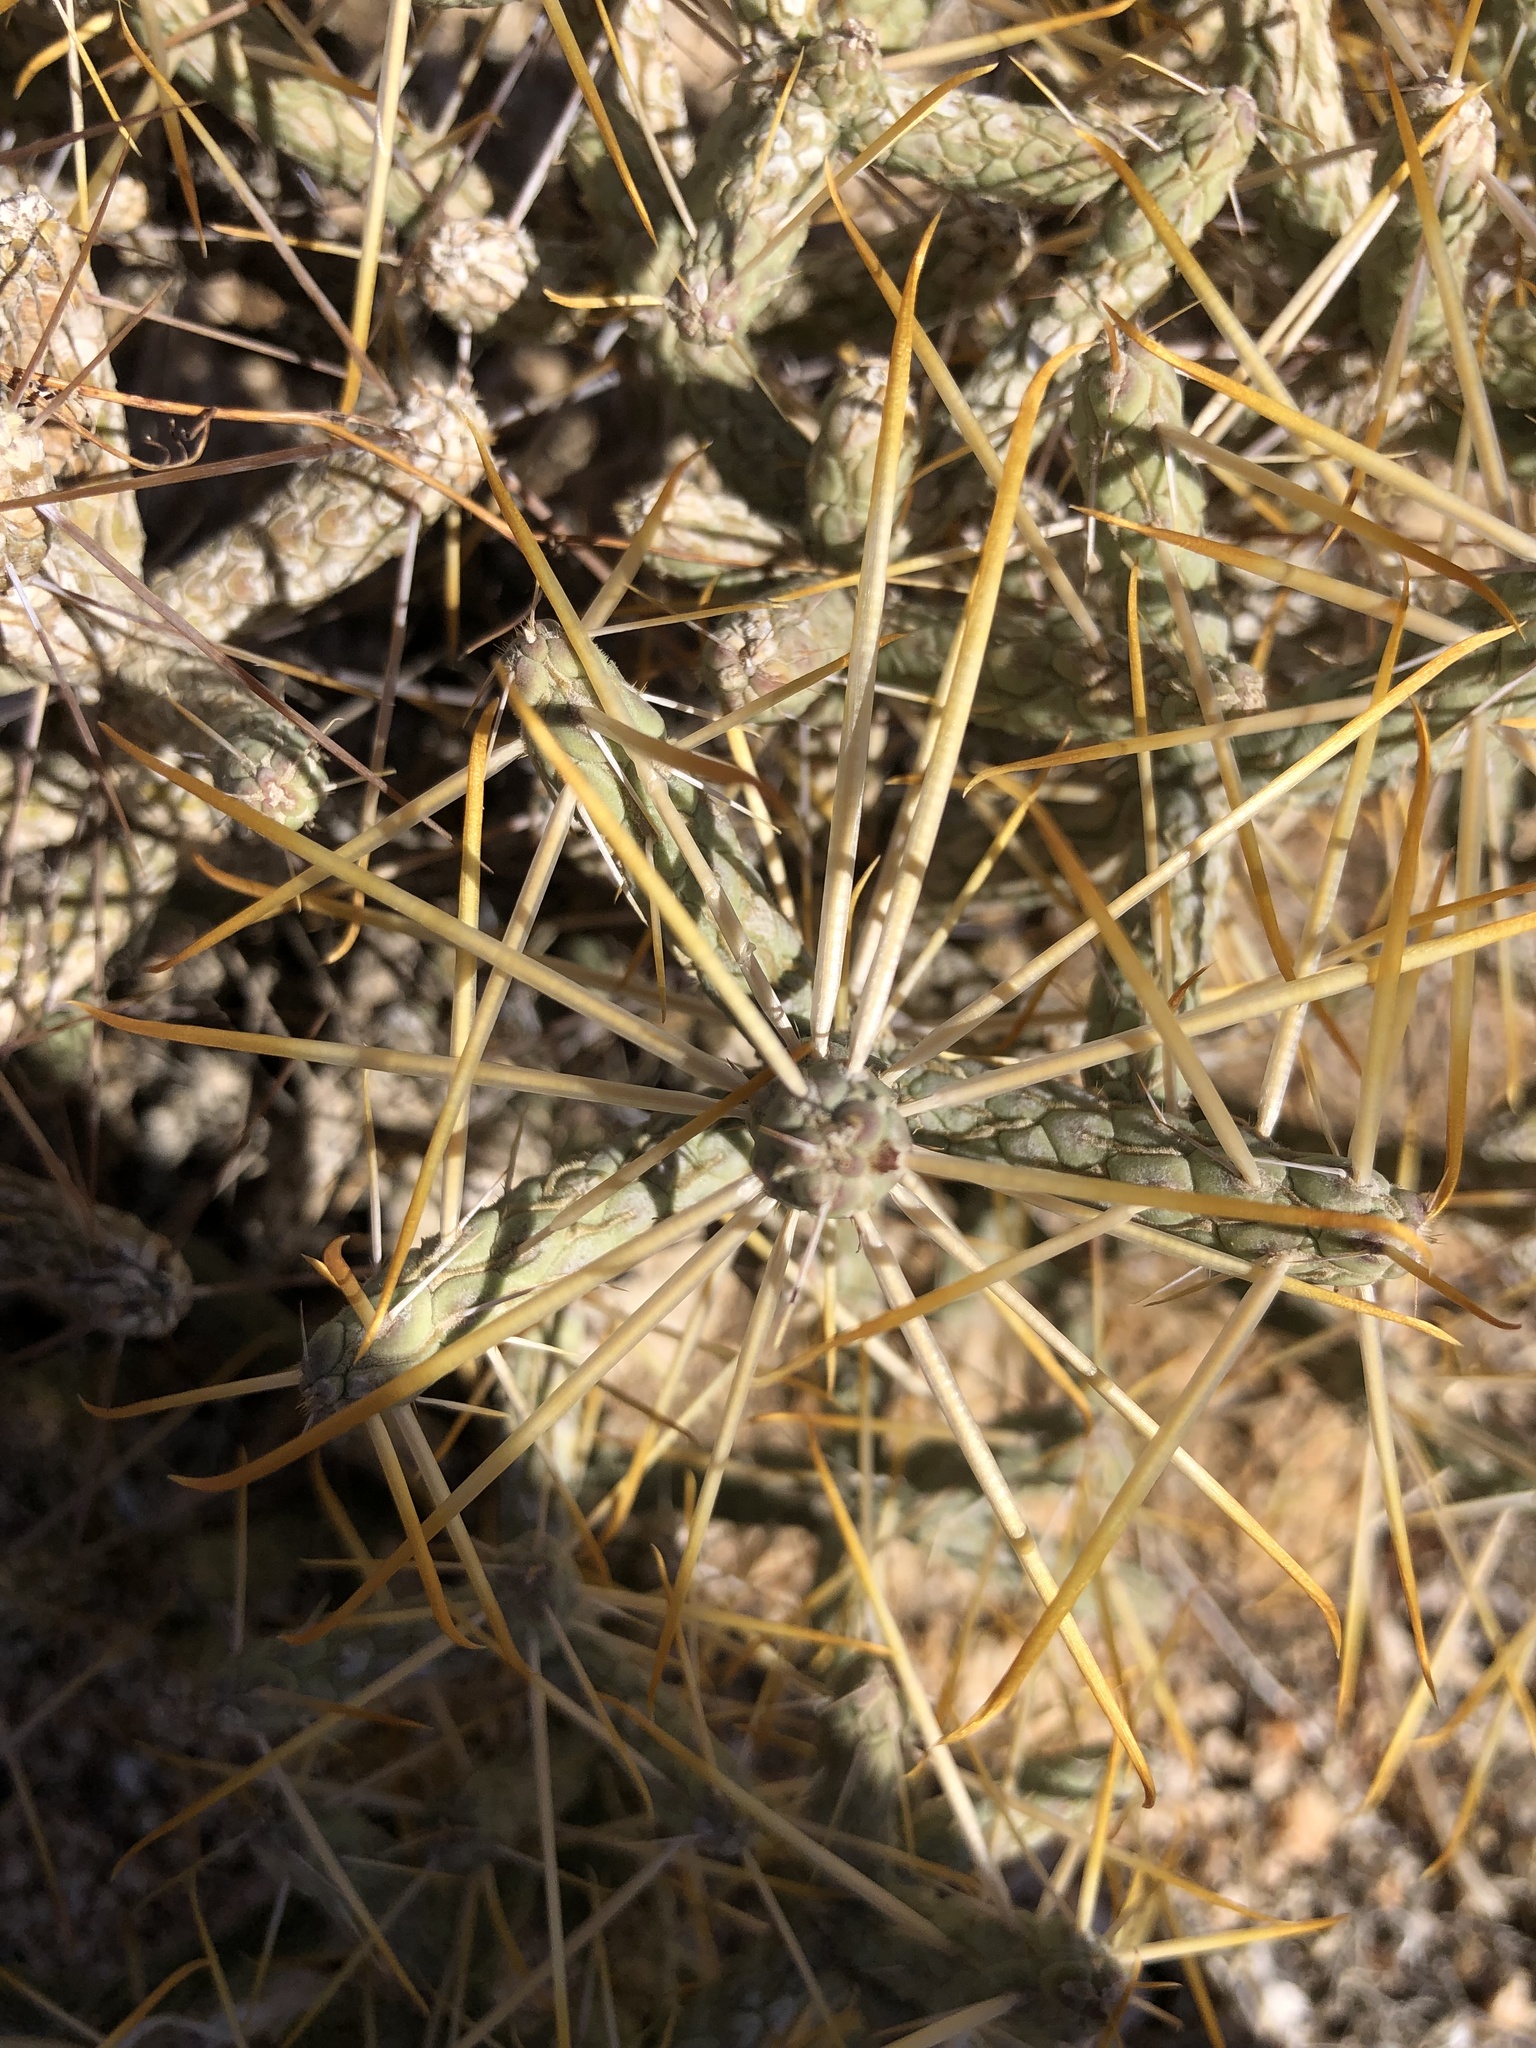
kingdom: Plantae
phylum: Tracheophyta
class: Magnoliopsida
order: Caryophyllales
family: Cactaceae
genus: Cylindropuntia
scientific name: Cylindropuntia ramosissima
